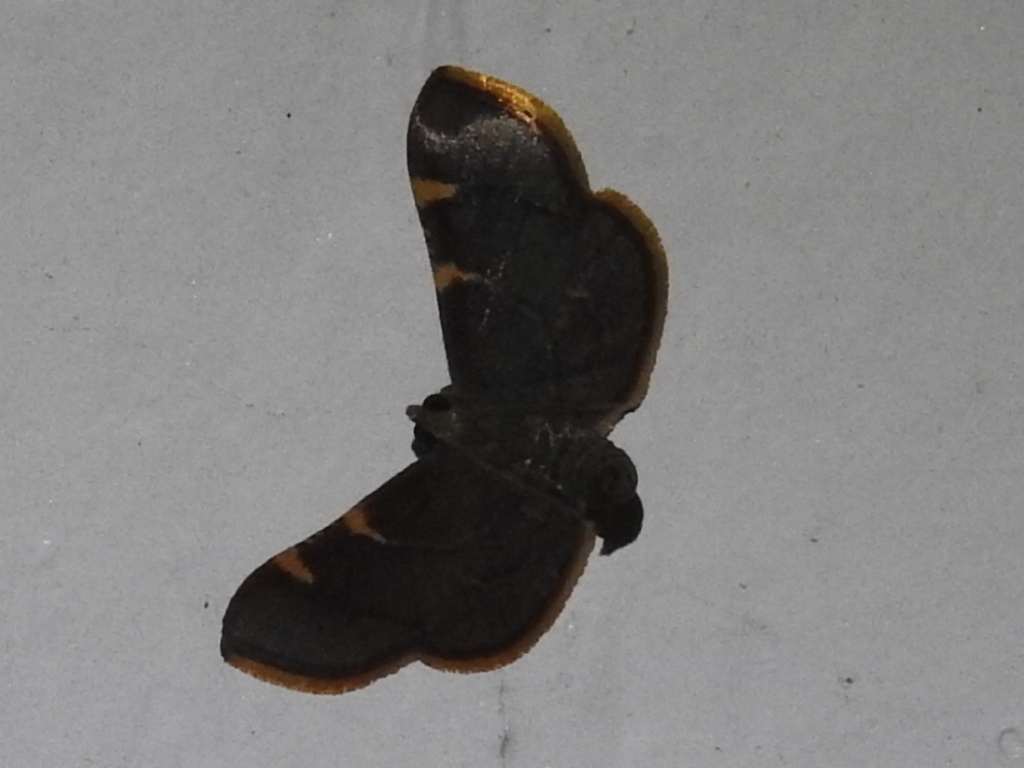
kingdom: Animalia
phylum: Arthropoda
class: Insecta
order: Lepidoptera
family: Pyralidae
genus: Hypsopygia
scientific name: Hypsopygia olinalis
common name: Yellow-fringed dolichomia moth
